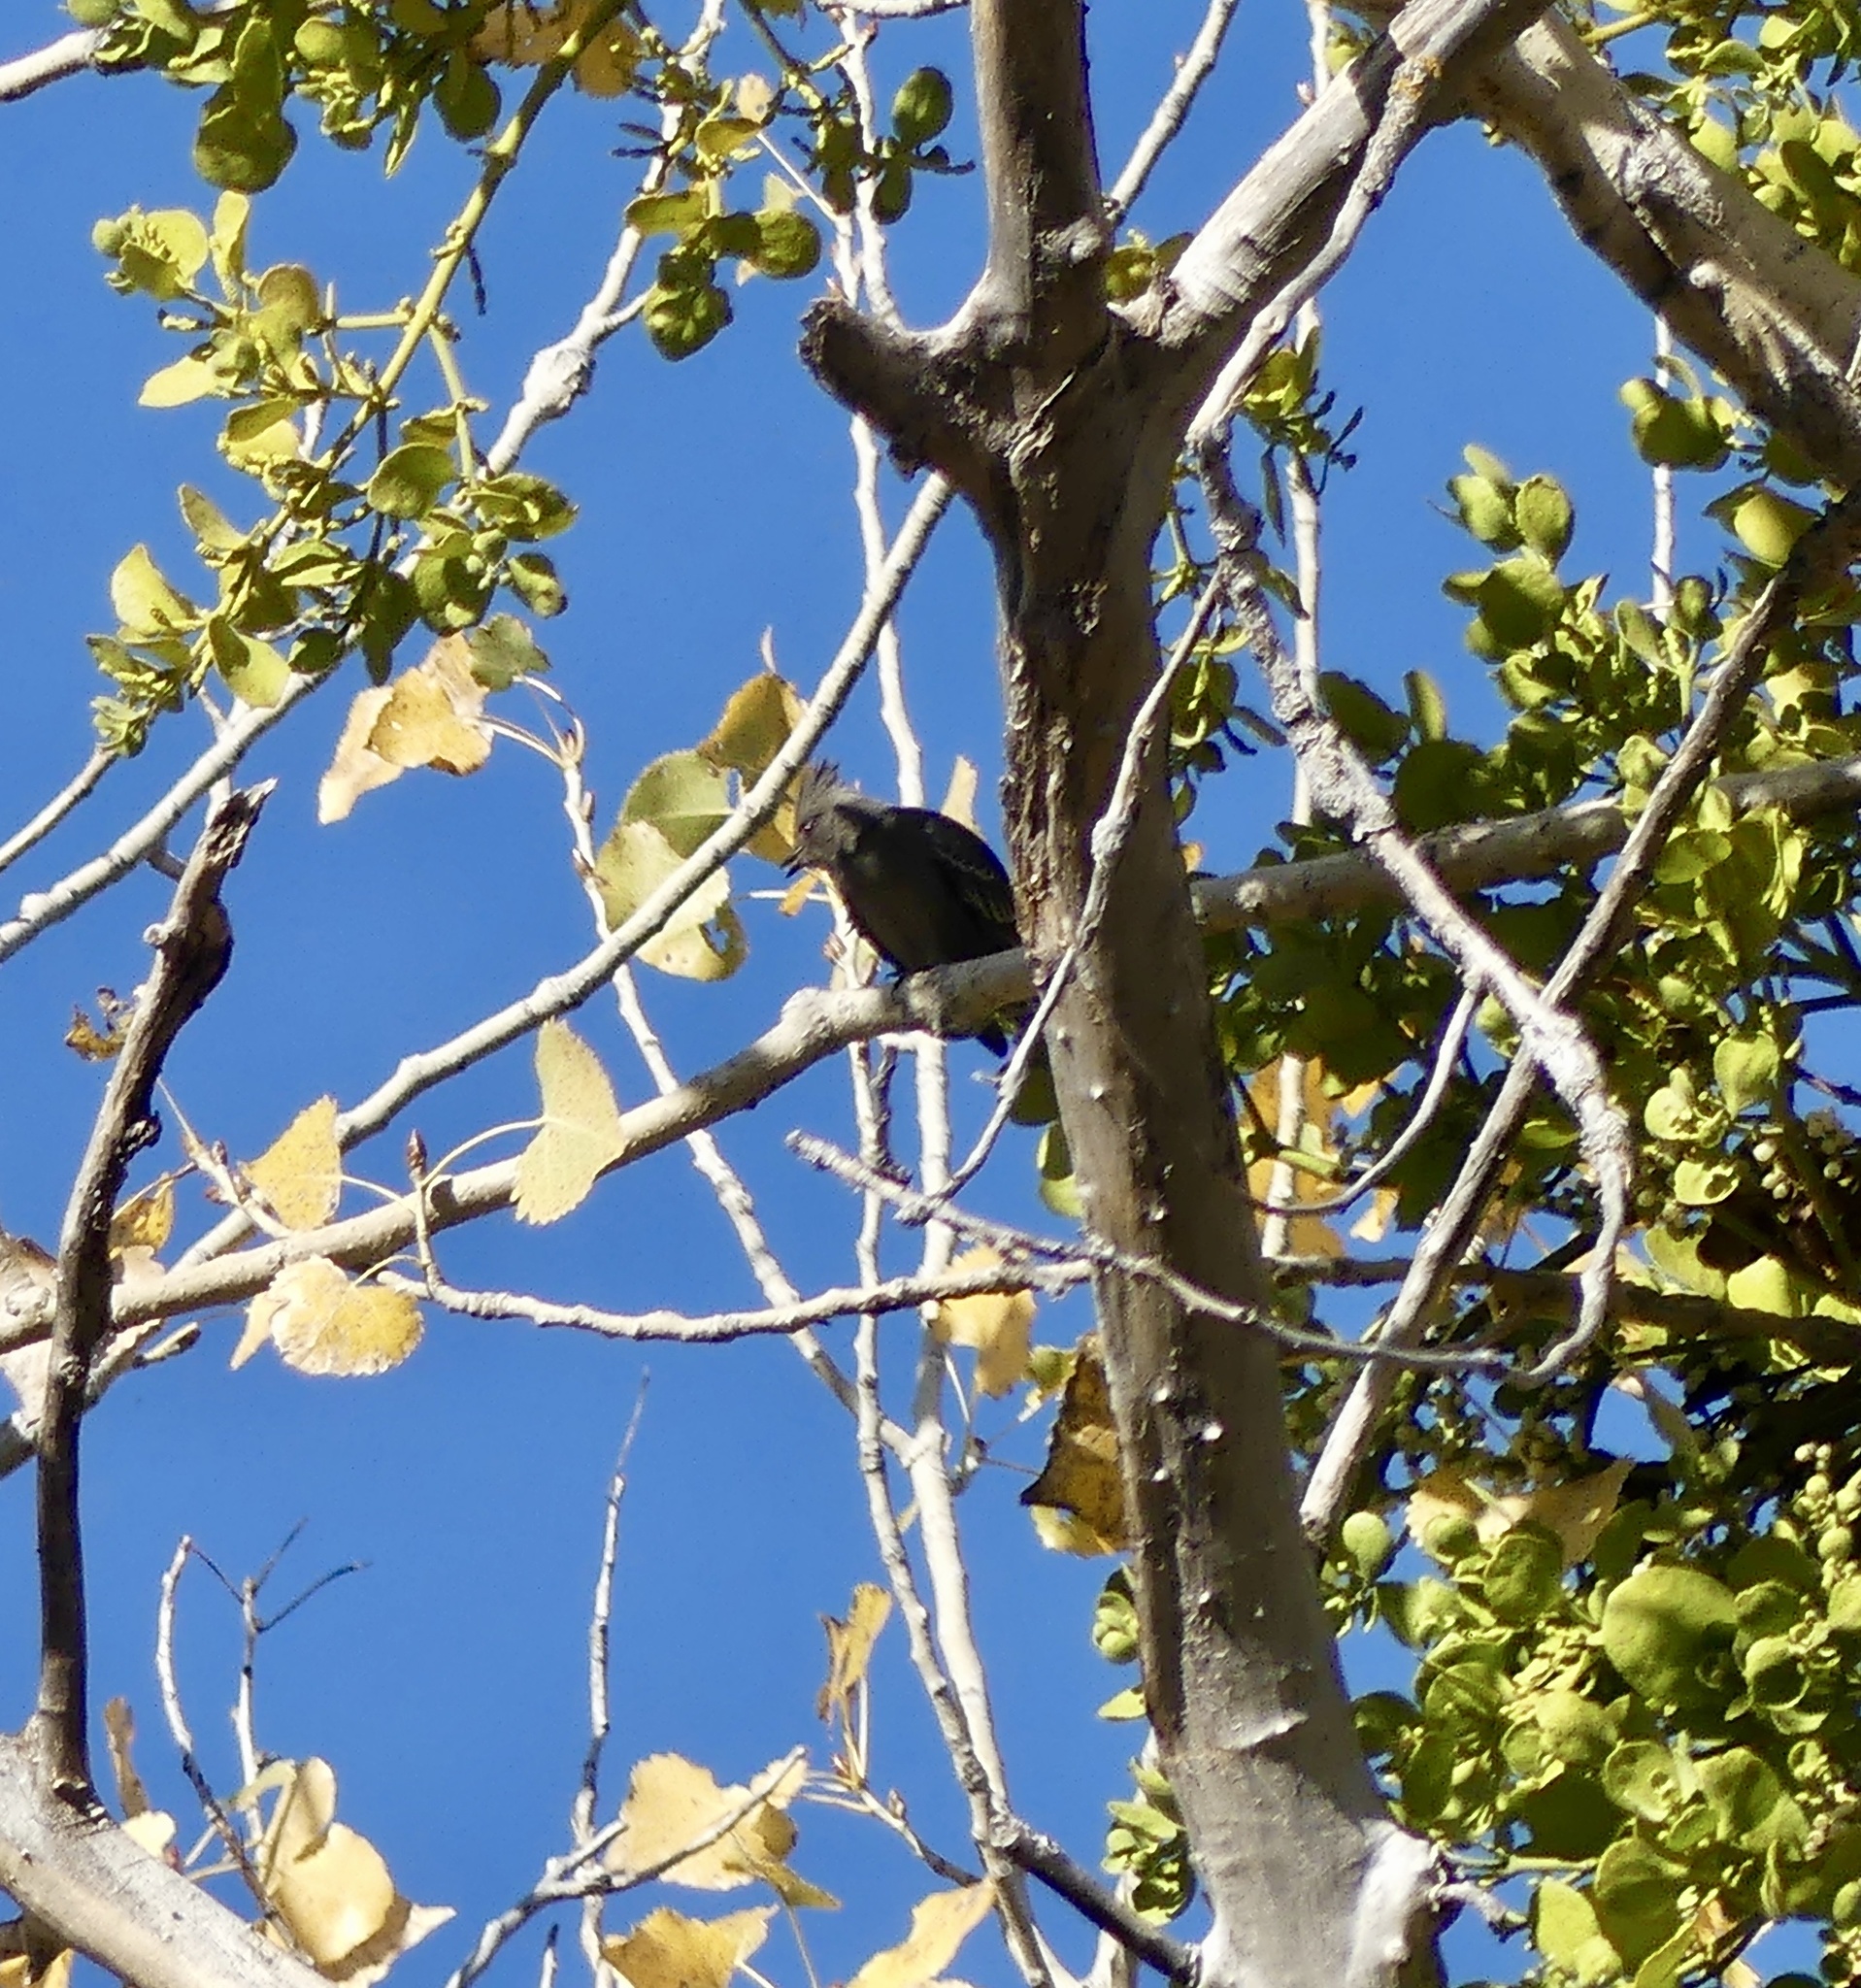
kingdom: Animalia
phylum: Chordata
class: Aves
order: Passeriformes
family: Ptilogonatidae
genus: Phainopepla
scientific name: Phainopepla nitens
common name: Phainopepla
